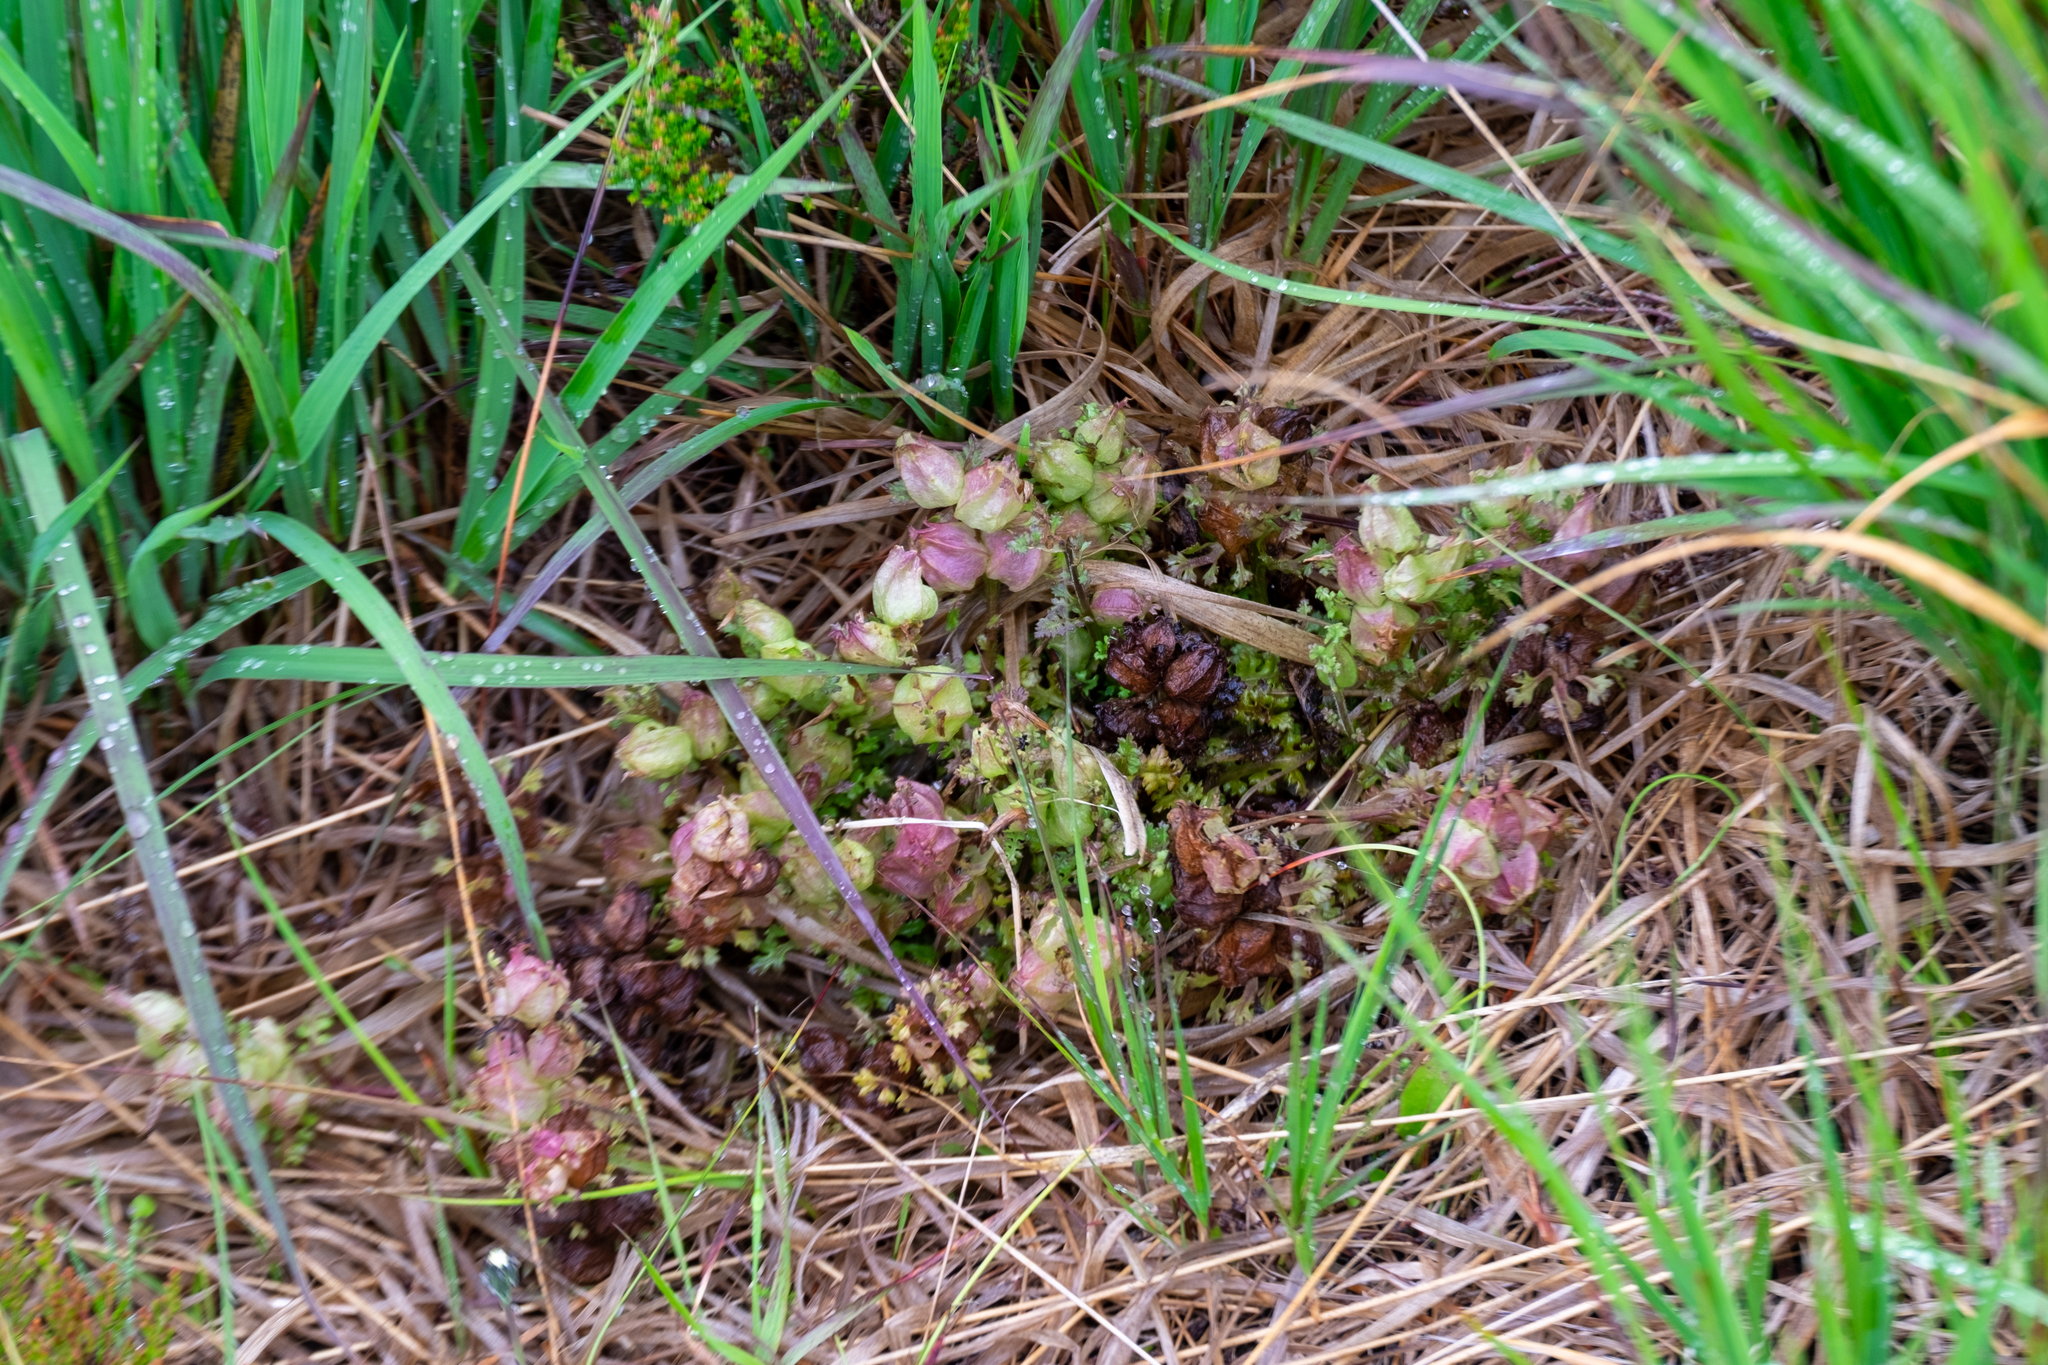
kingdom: Plantae
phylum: Tracheophyta
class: Magnoliopsida
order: Lamiales
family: Orobanchaceae
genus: Pedicularis
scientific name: Pedicularis sylvatica
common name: Lousewort
